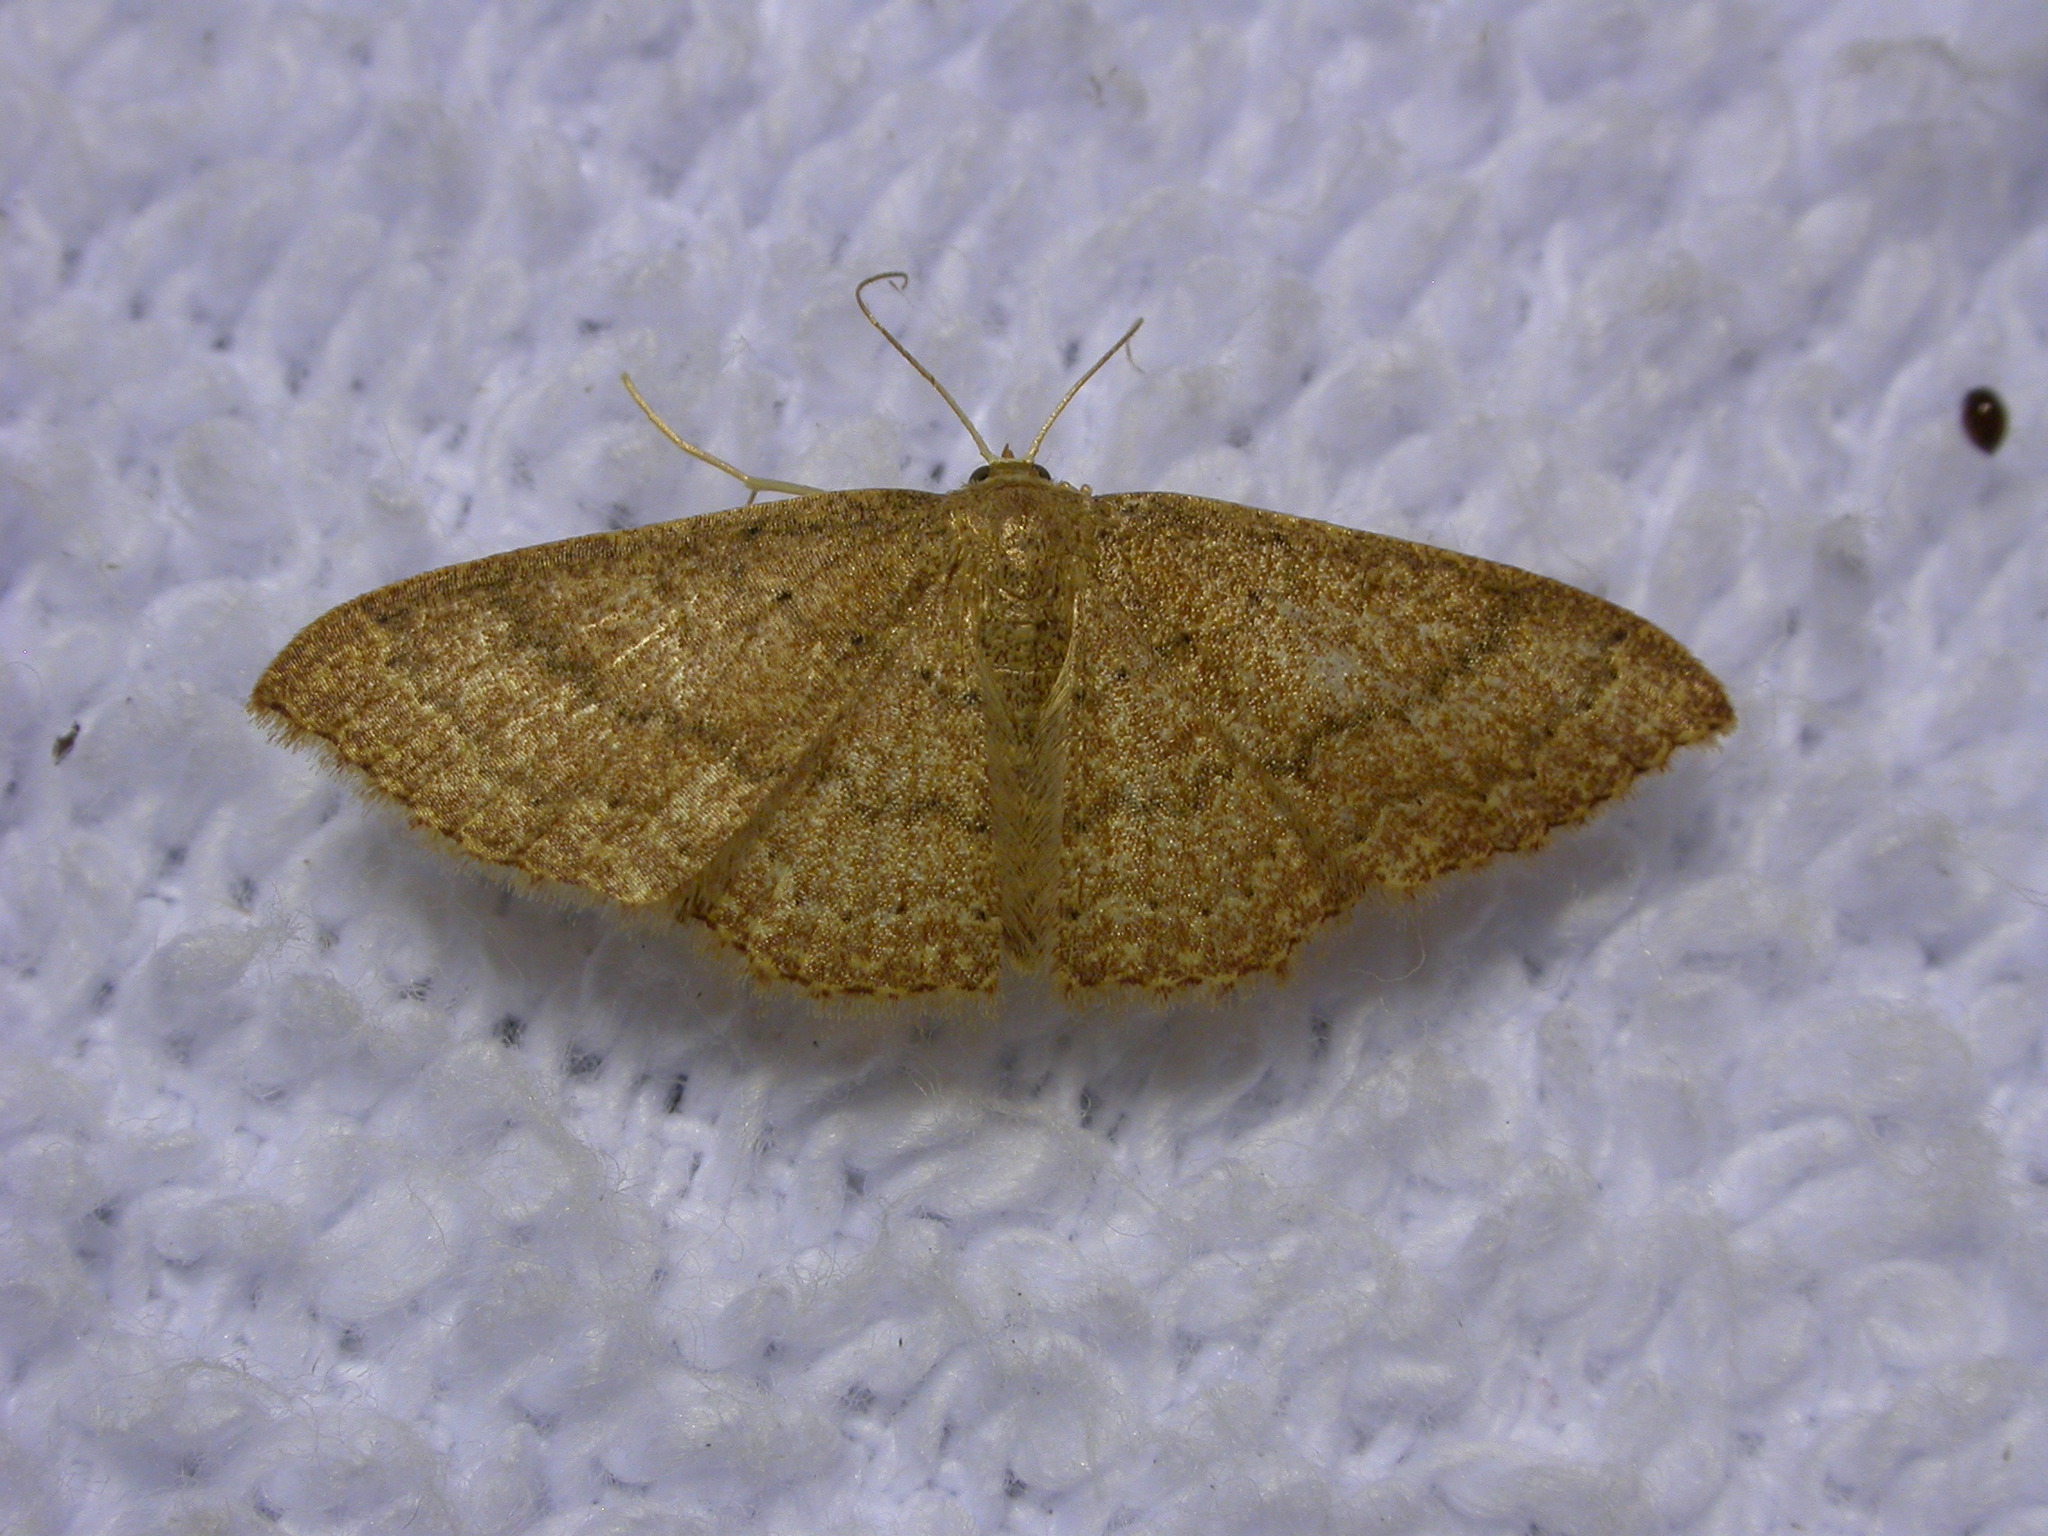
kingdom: Animalia
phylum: Arthropoda
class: Insecta
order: Lepidoptera
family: Geometridae
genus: Pleuroprucha
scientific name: Pleuroprucha insulsaria
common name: Common tan wave
